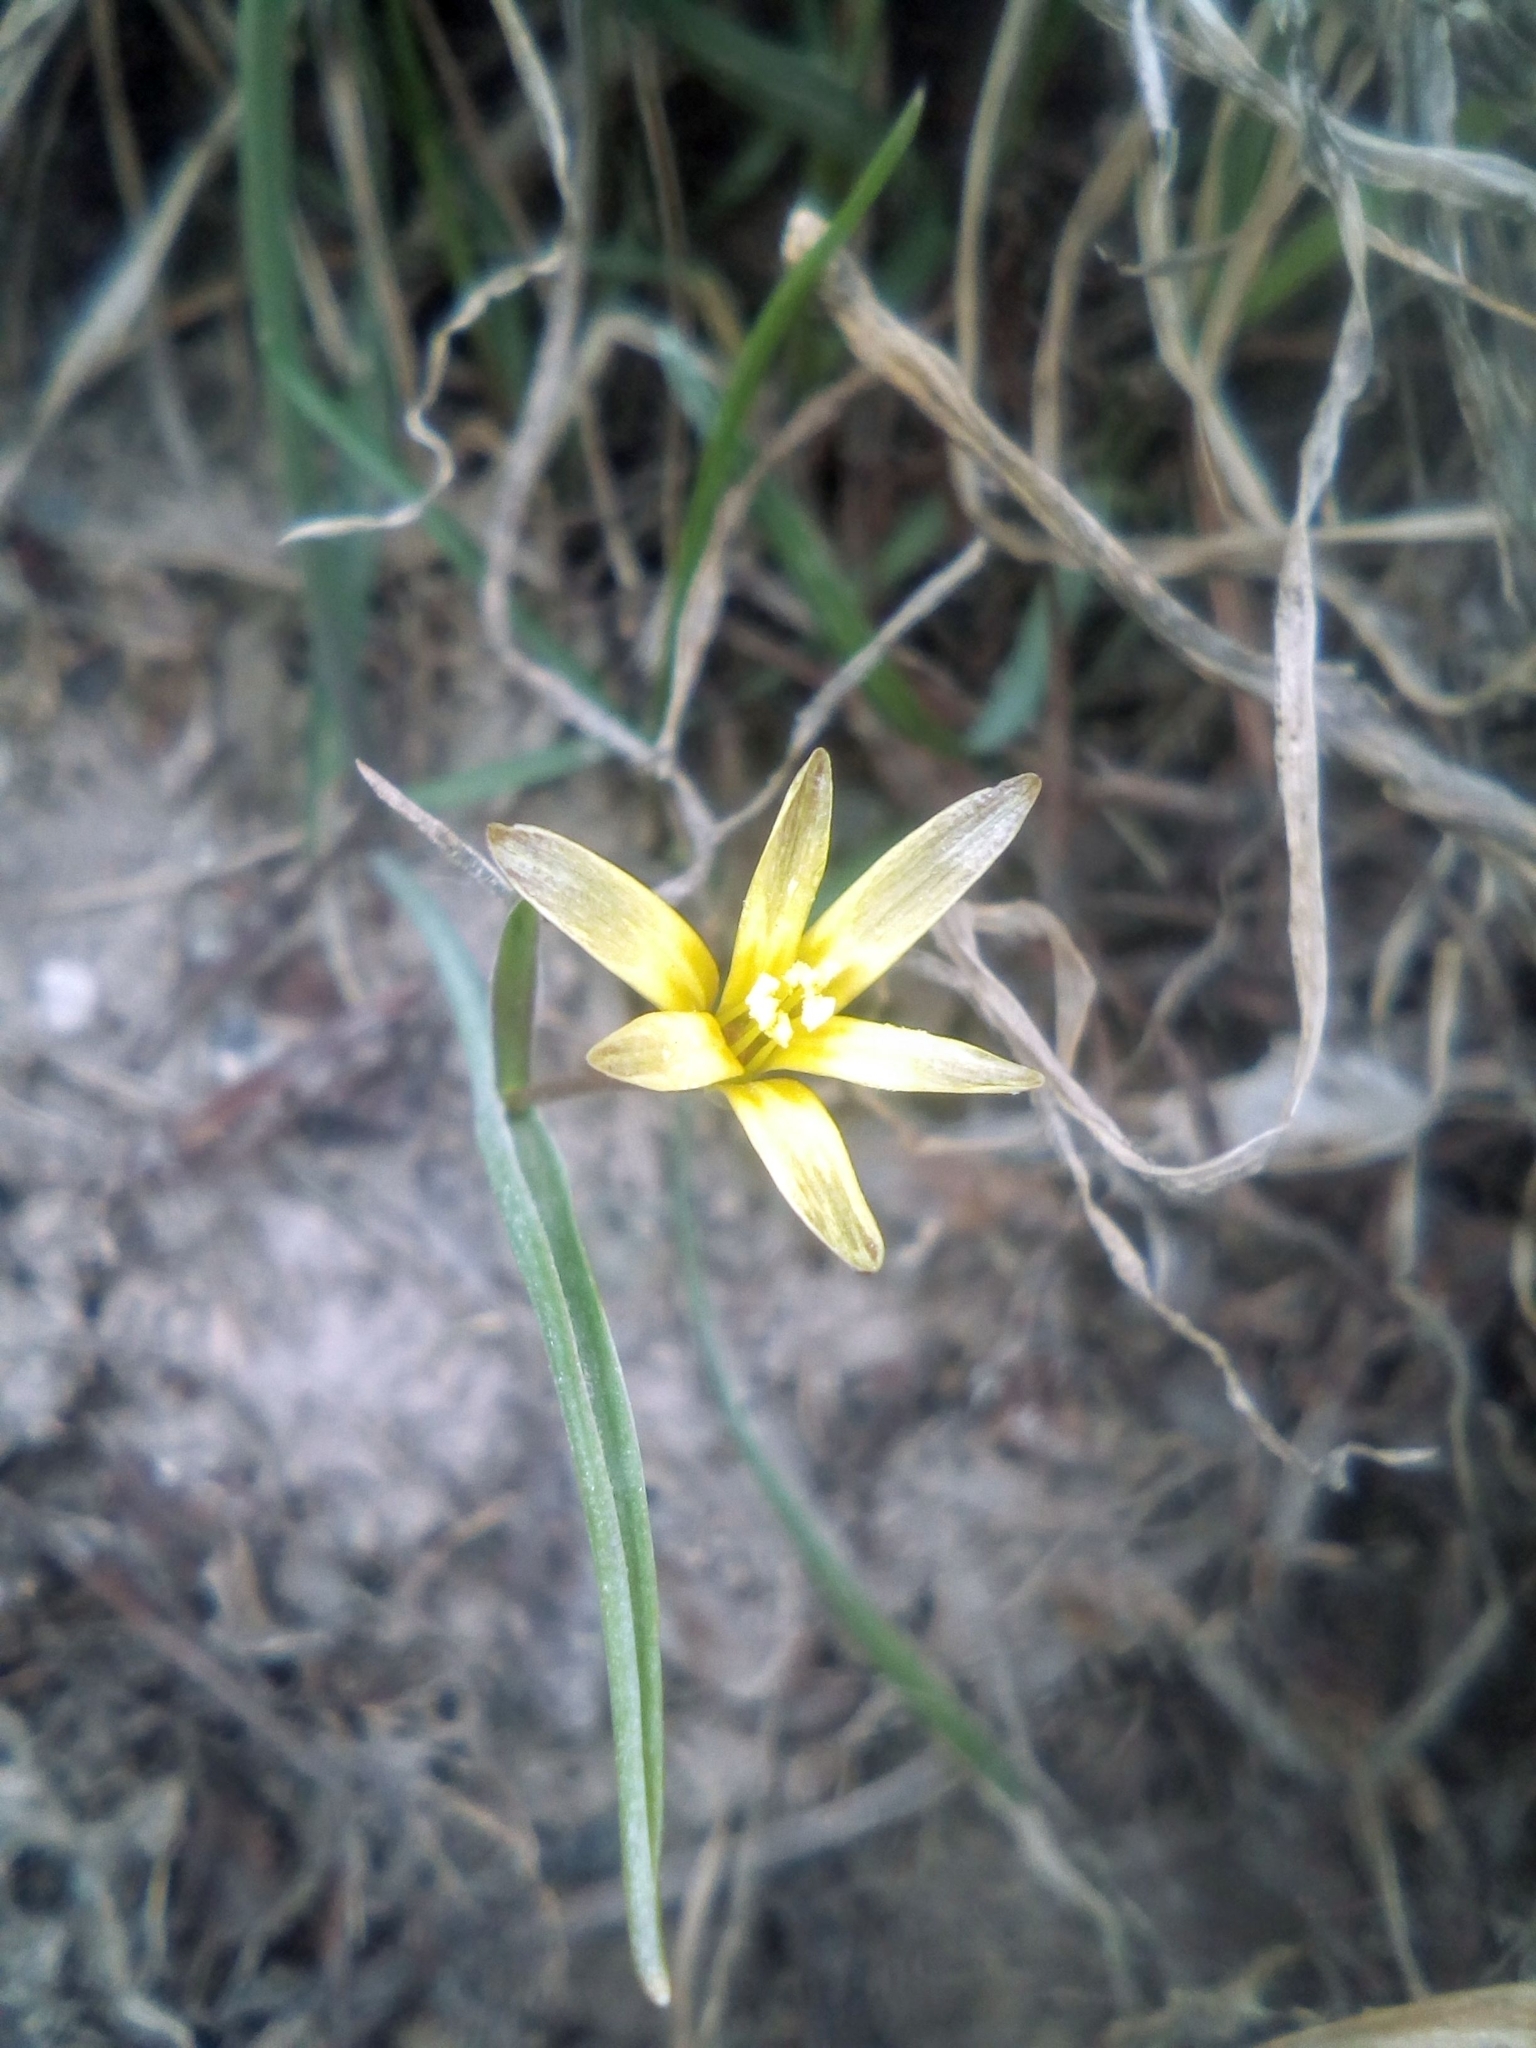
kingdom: Plantae
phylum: Tracheophyta
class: Liliopsida
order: Liliales
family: Liliaceae
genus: Gagea
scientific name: Gagea capusii
